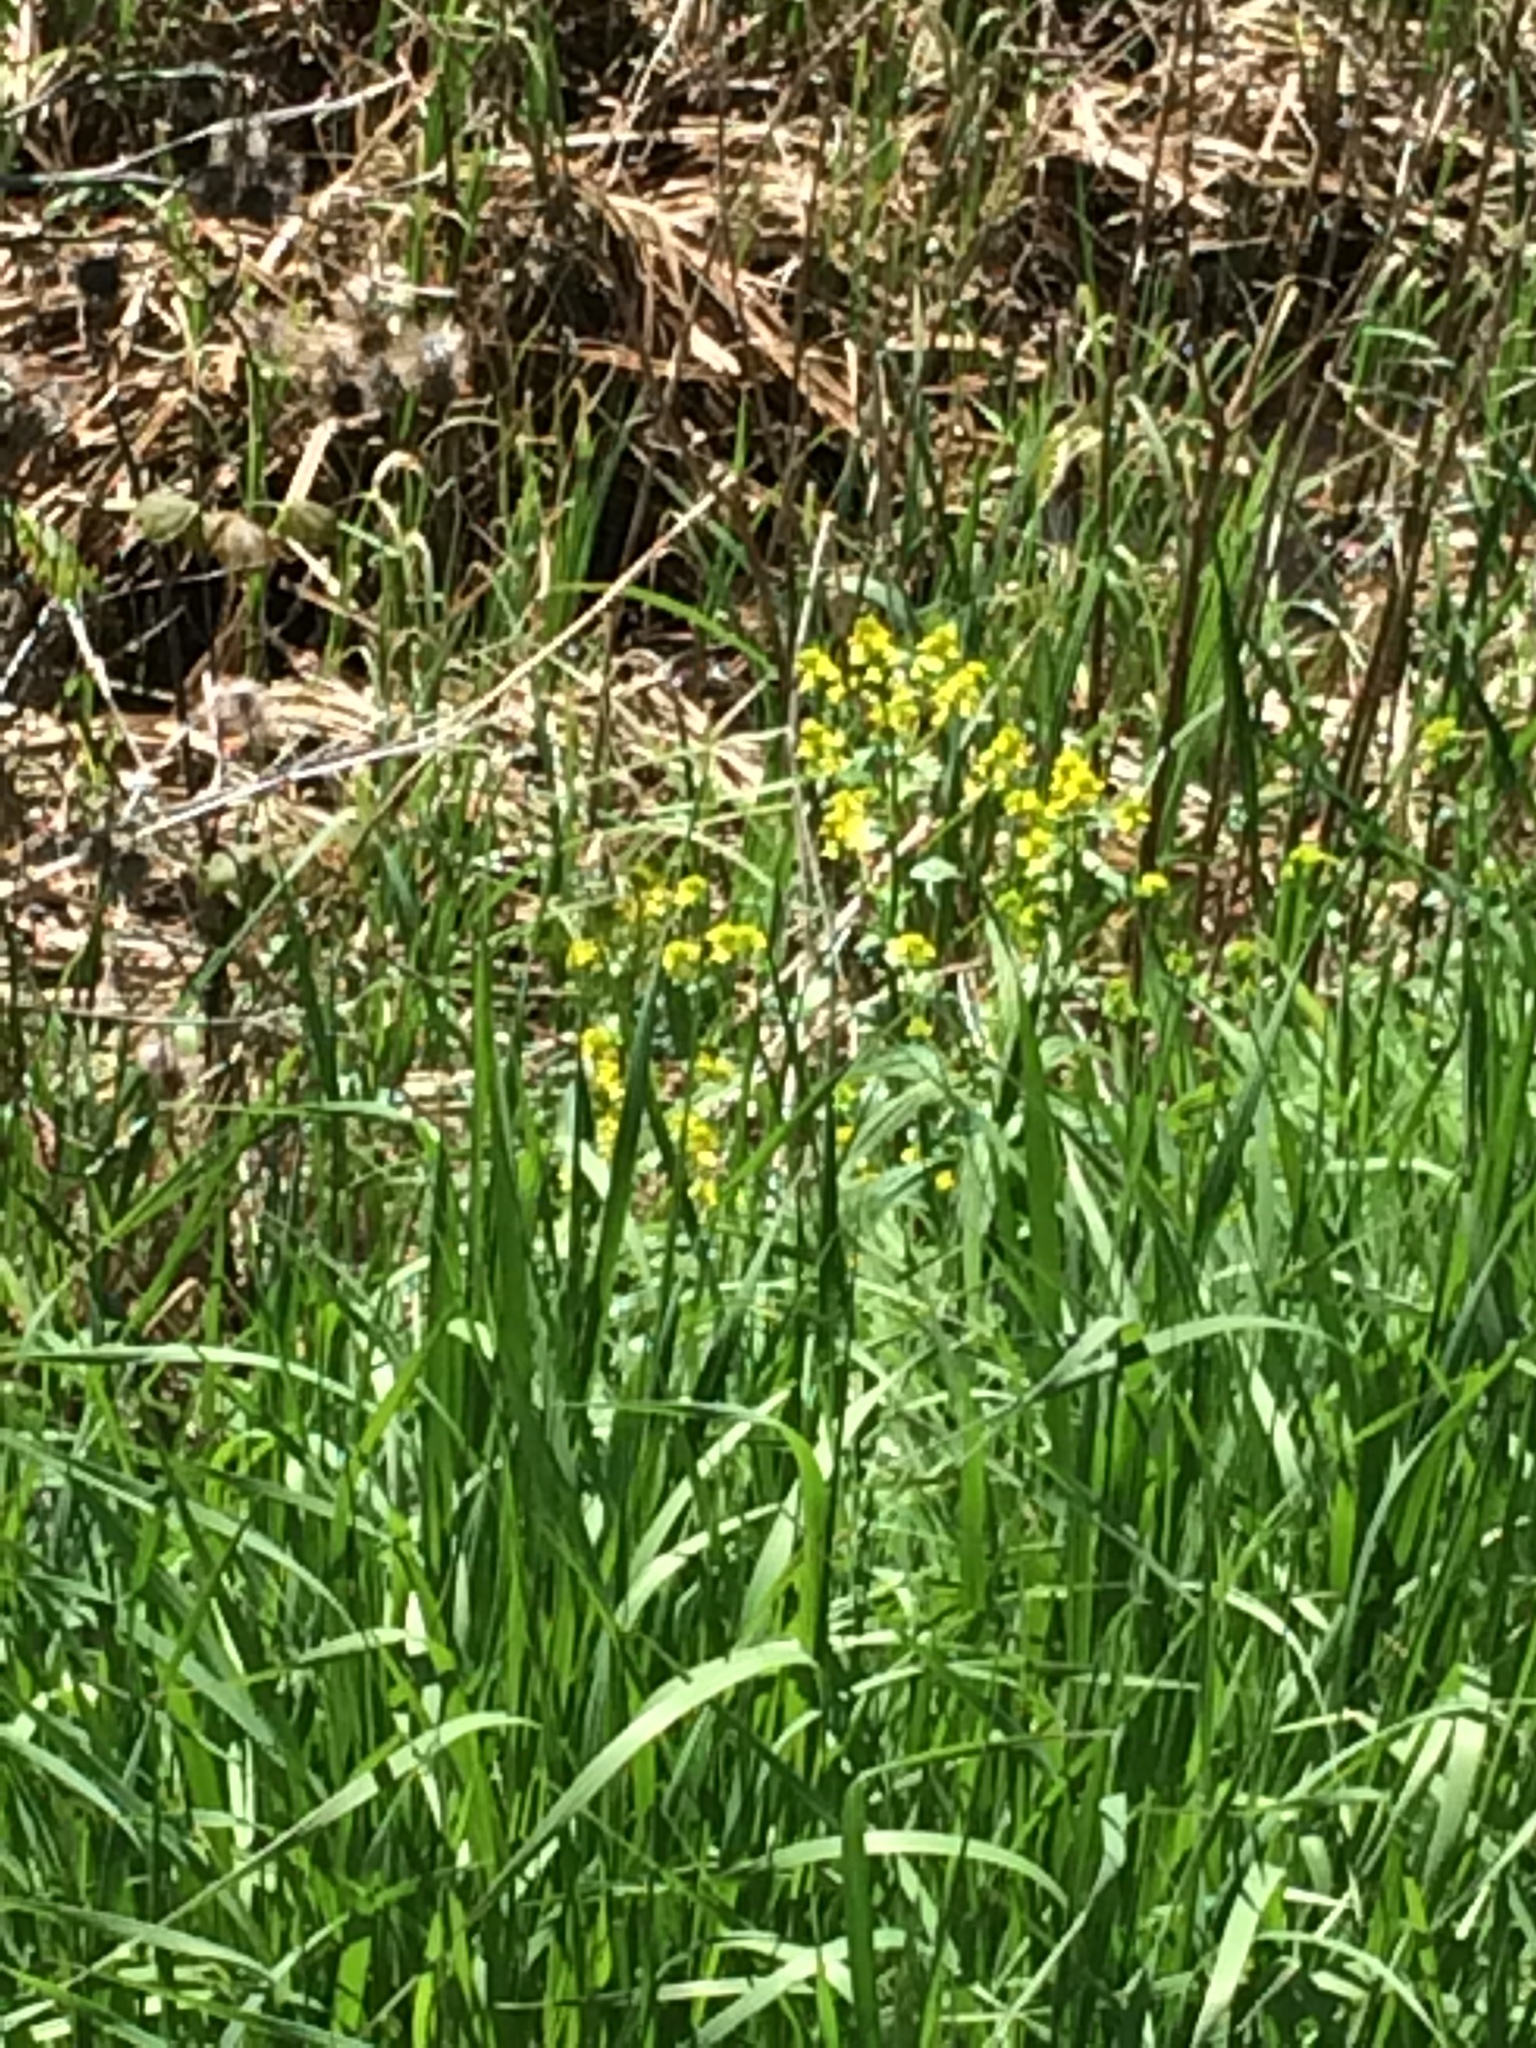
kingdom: Plantae
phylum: Tracheophyta
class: Magnoliopsida
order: Brassicales
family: Brassicaceae
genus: Barbarea
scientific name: Barbarea vulgaris
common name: Cressy-greens
